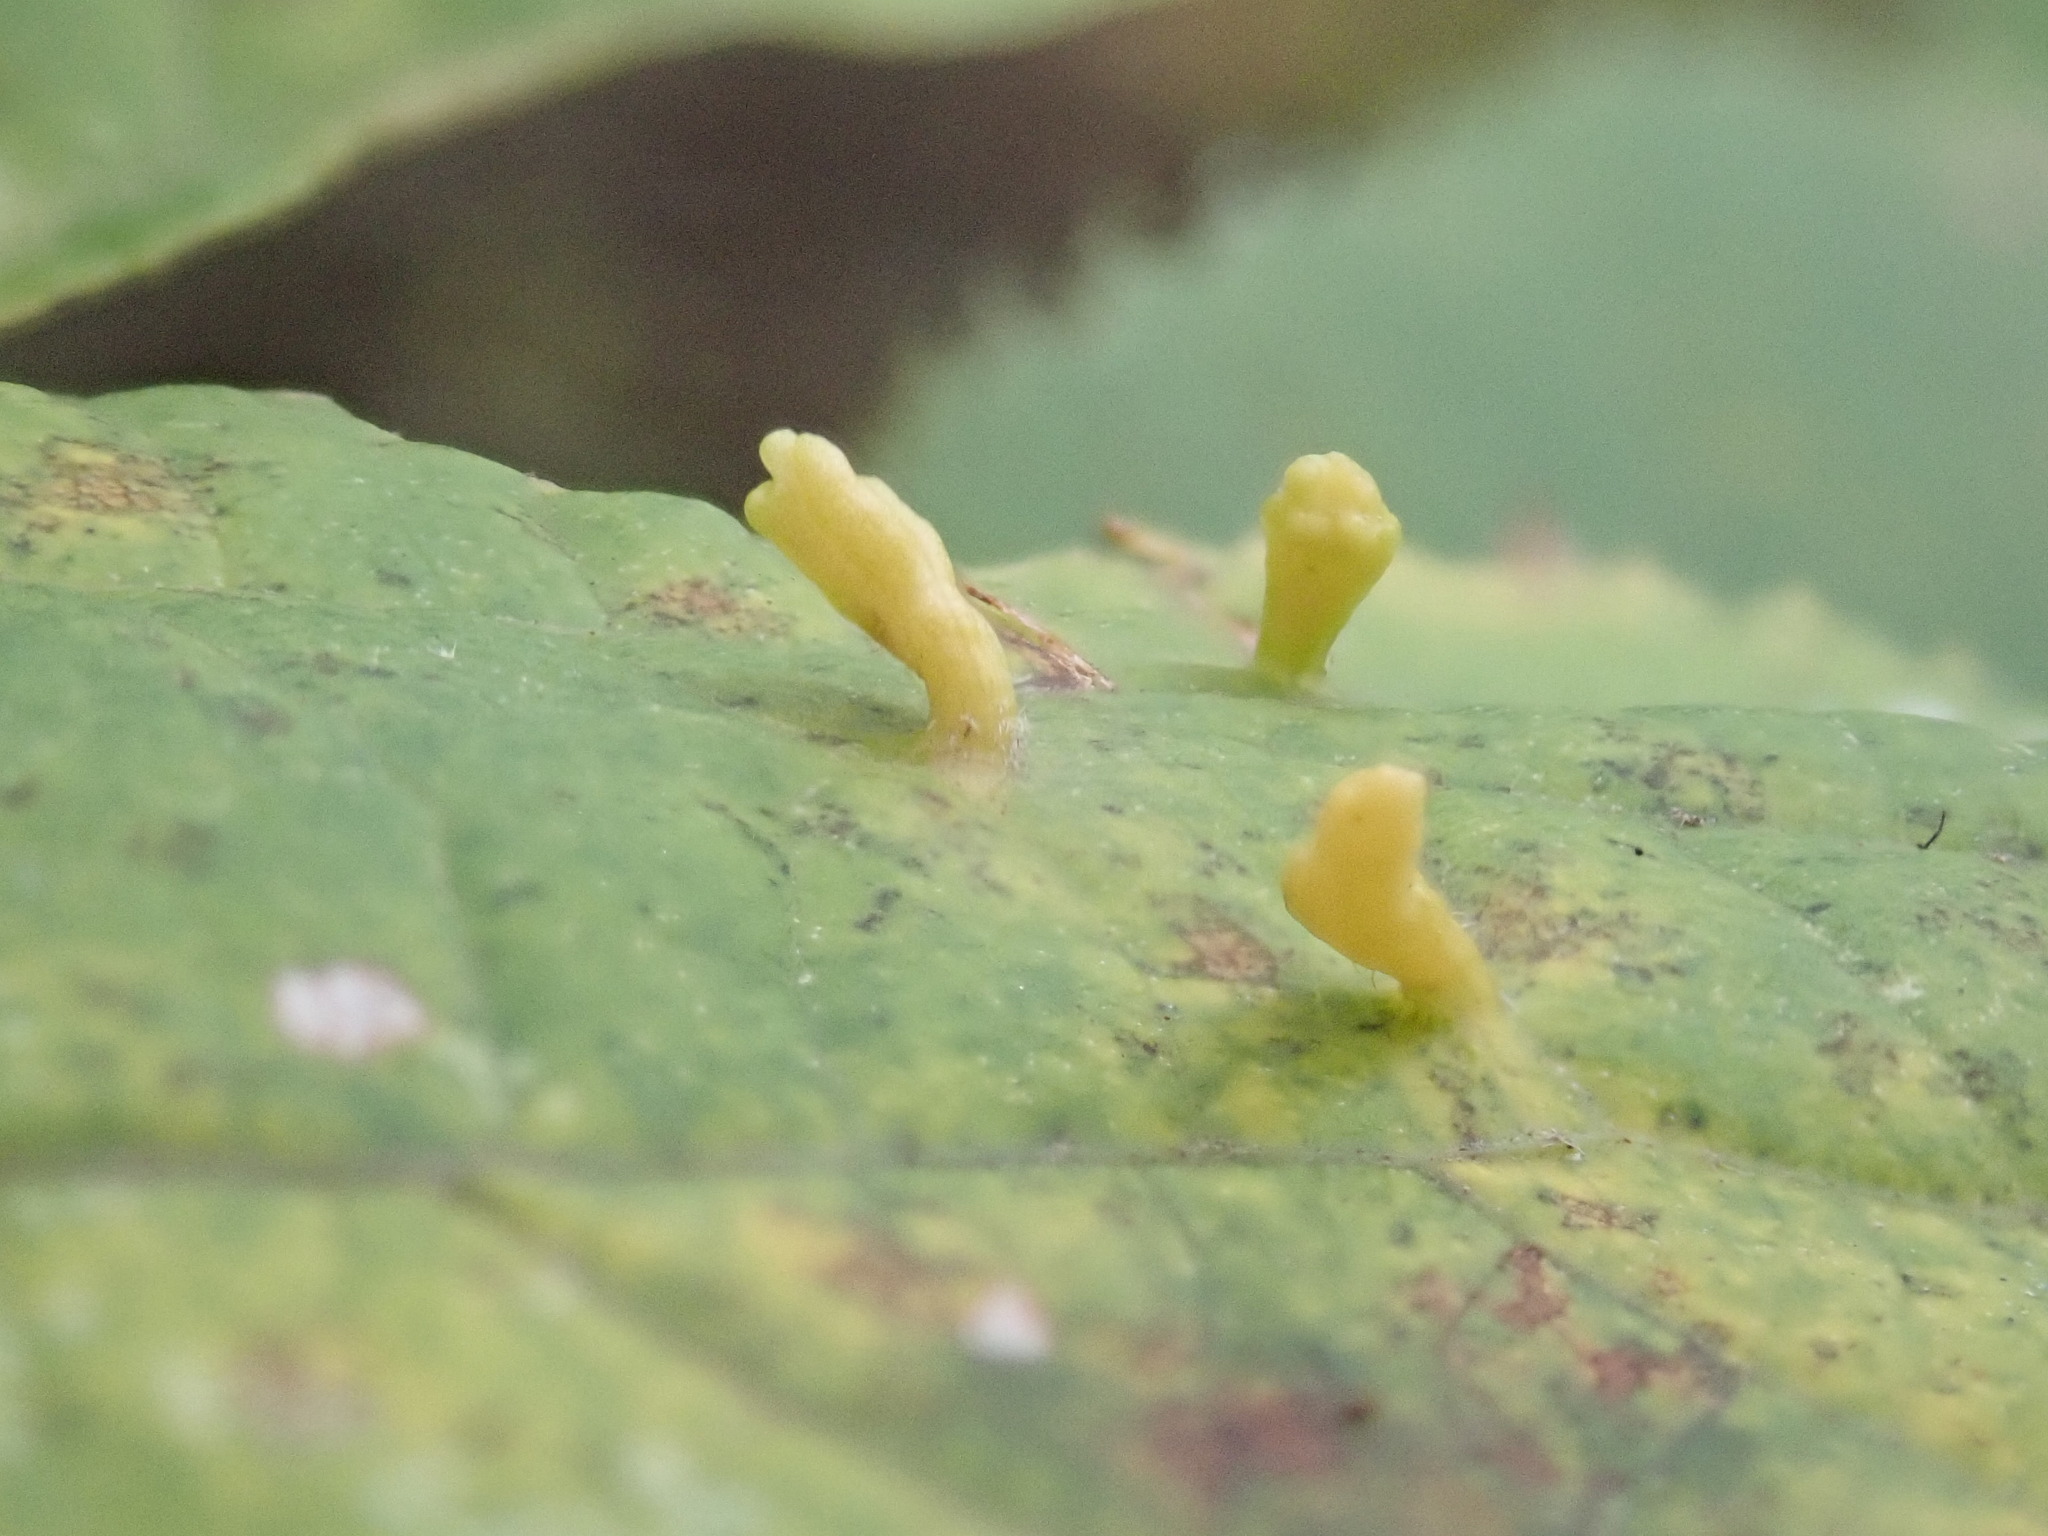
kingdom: Animalia
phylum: Arthropoda
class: Arachnida
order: Trombidiformes
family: Eriophyidae
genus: Eriophyes
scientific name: Eriophyes tiliae
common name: Red nail gall mite
